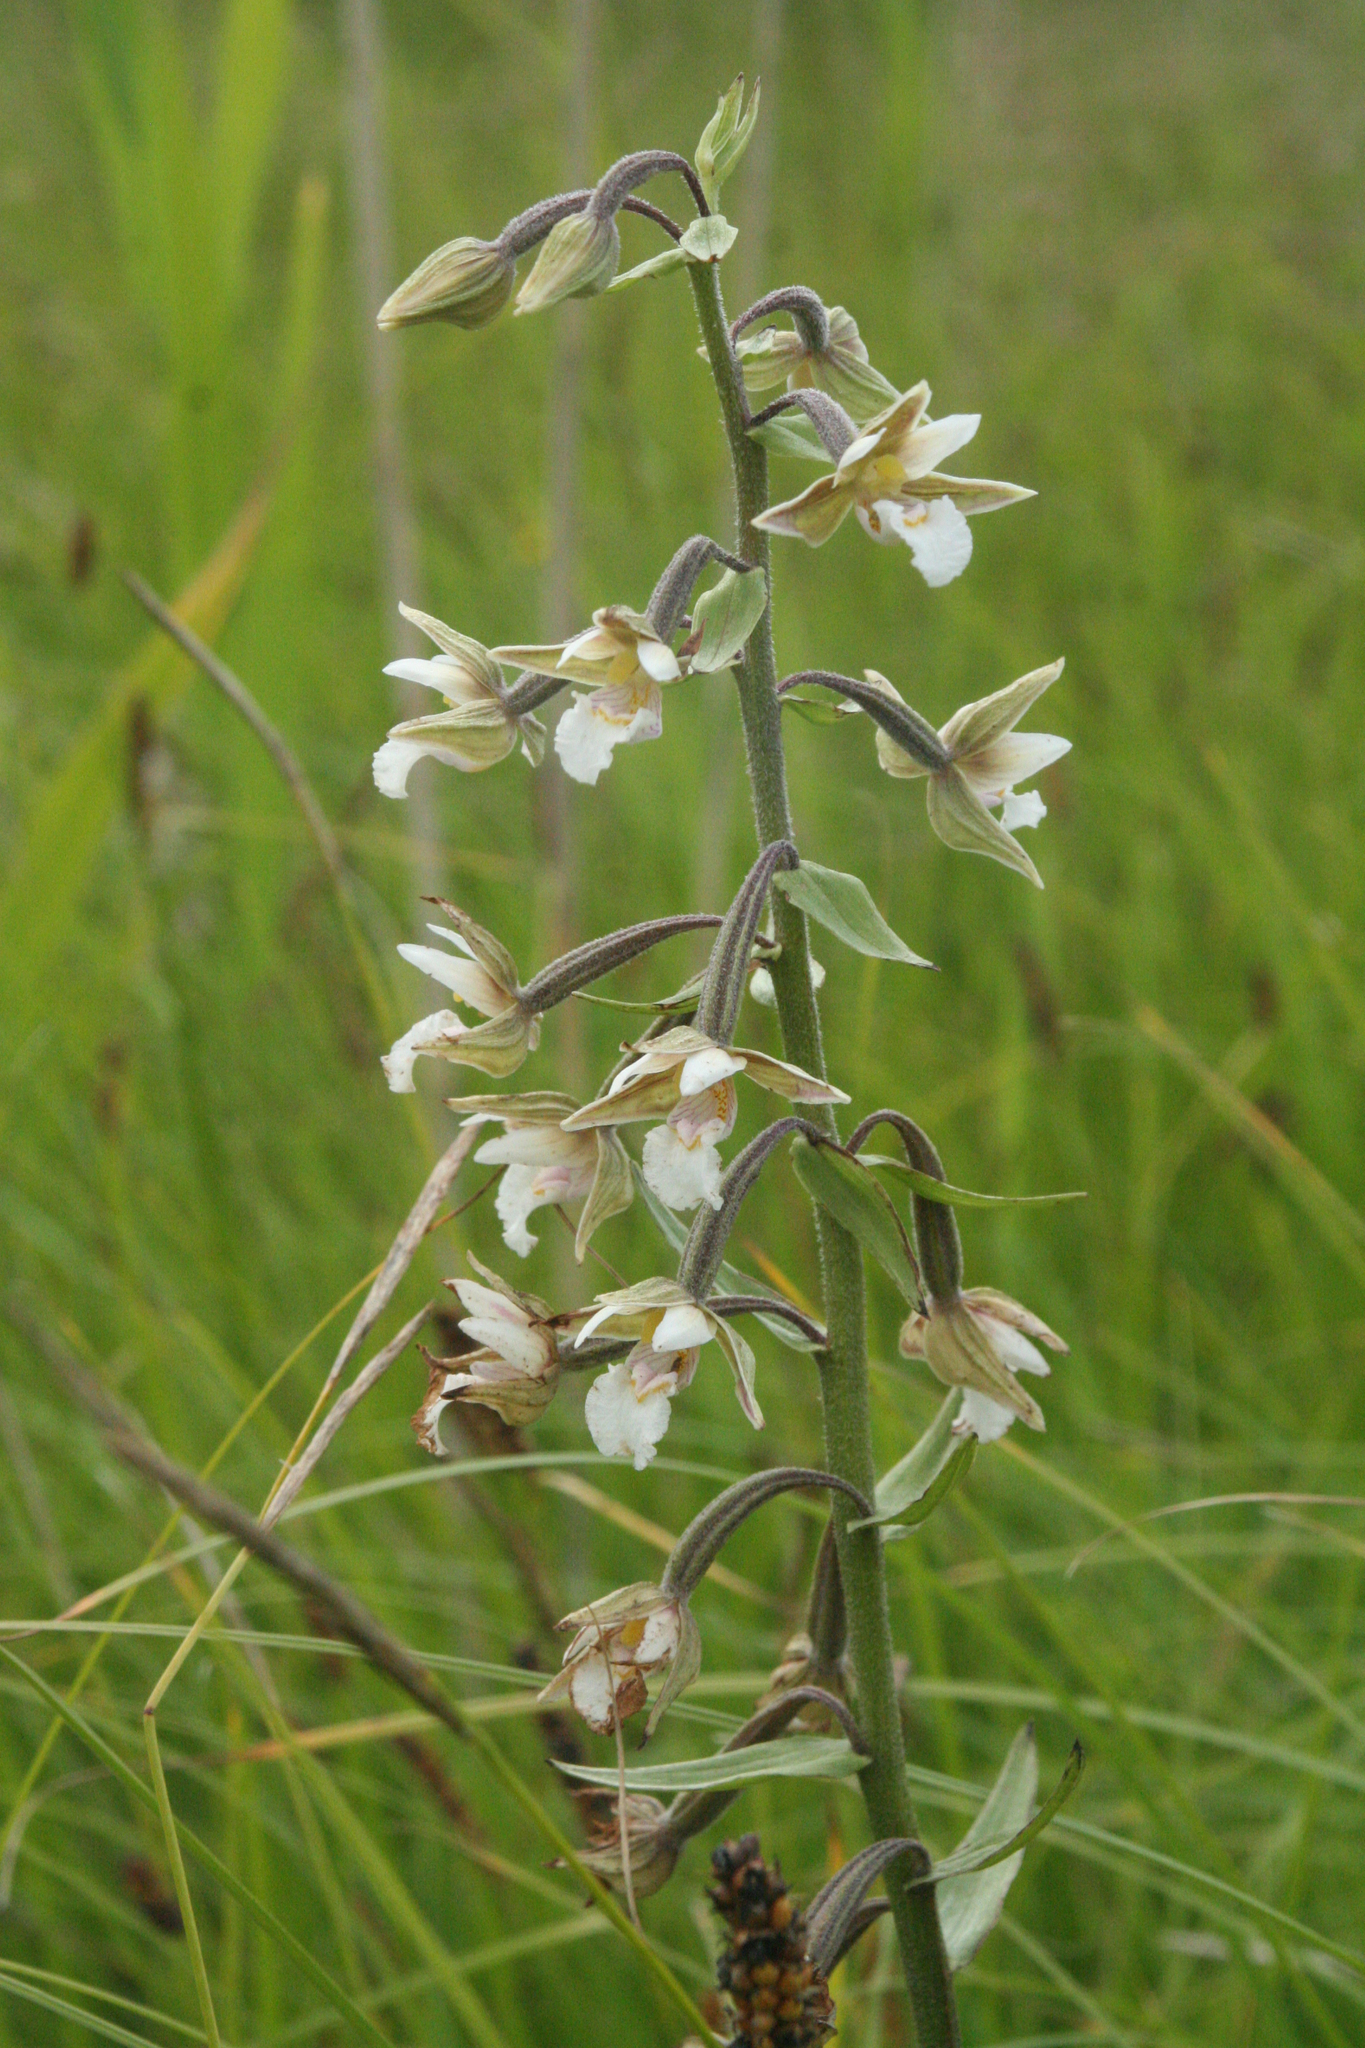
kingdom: Plantae
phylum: Tracheophyta
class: Liliopsida
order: Asparagales
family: Orchidaceae
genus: Epipactis
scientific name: Epipactis palustris
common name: Marsh helleborine
